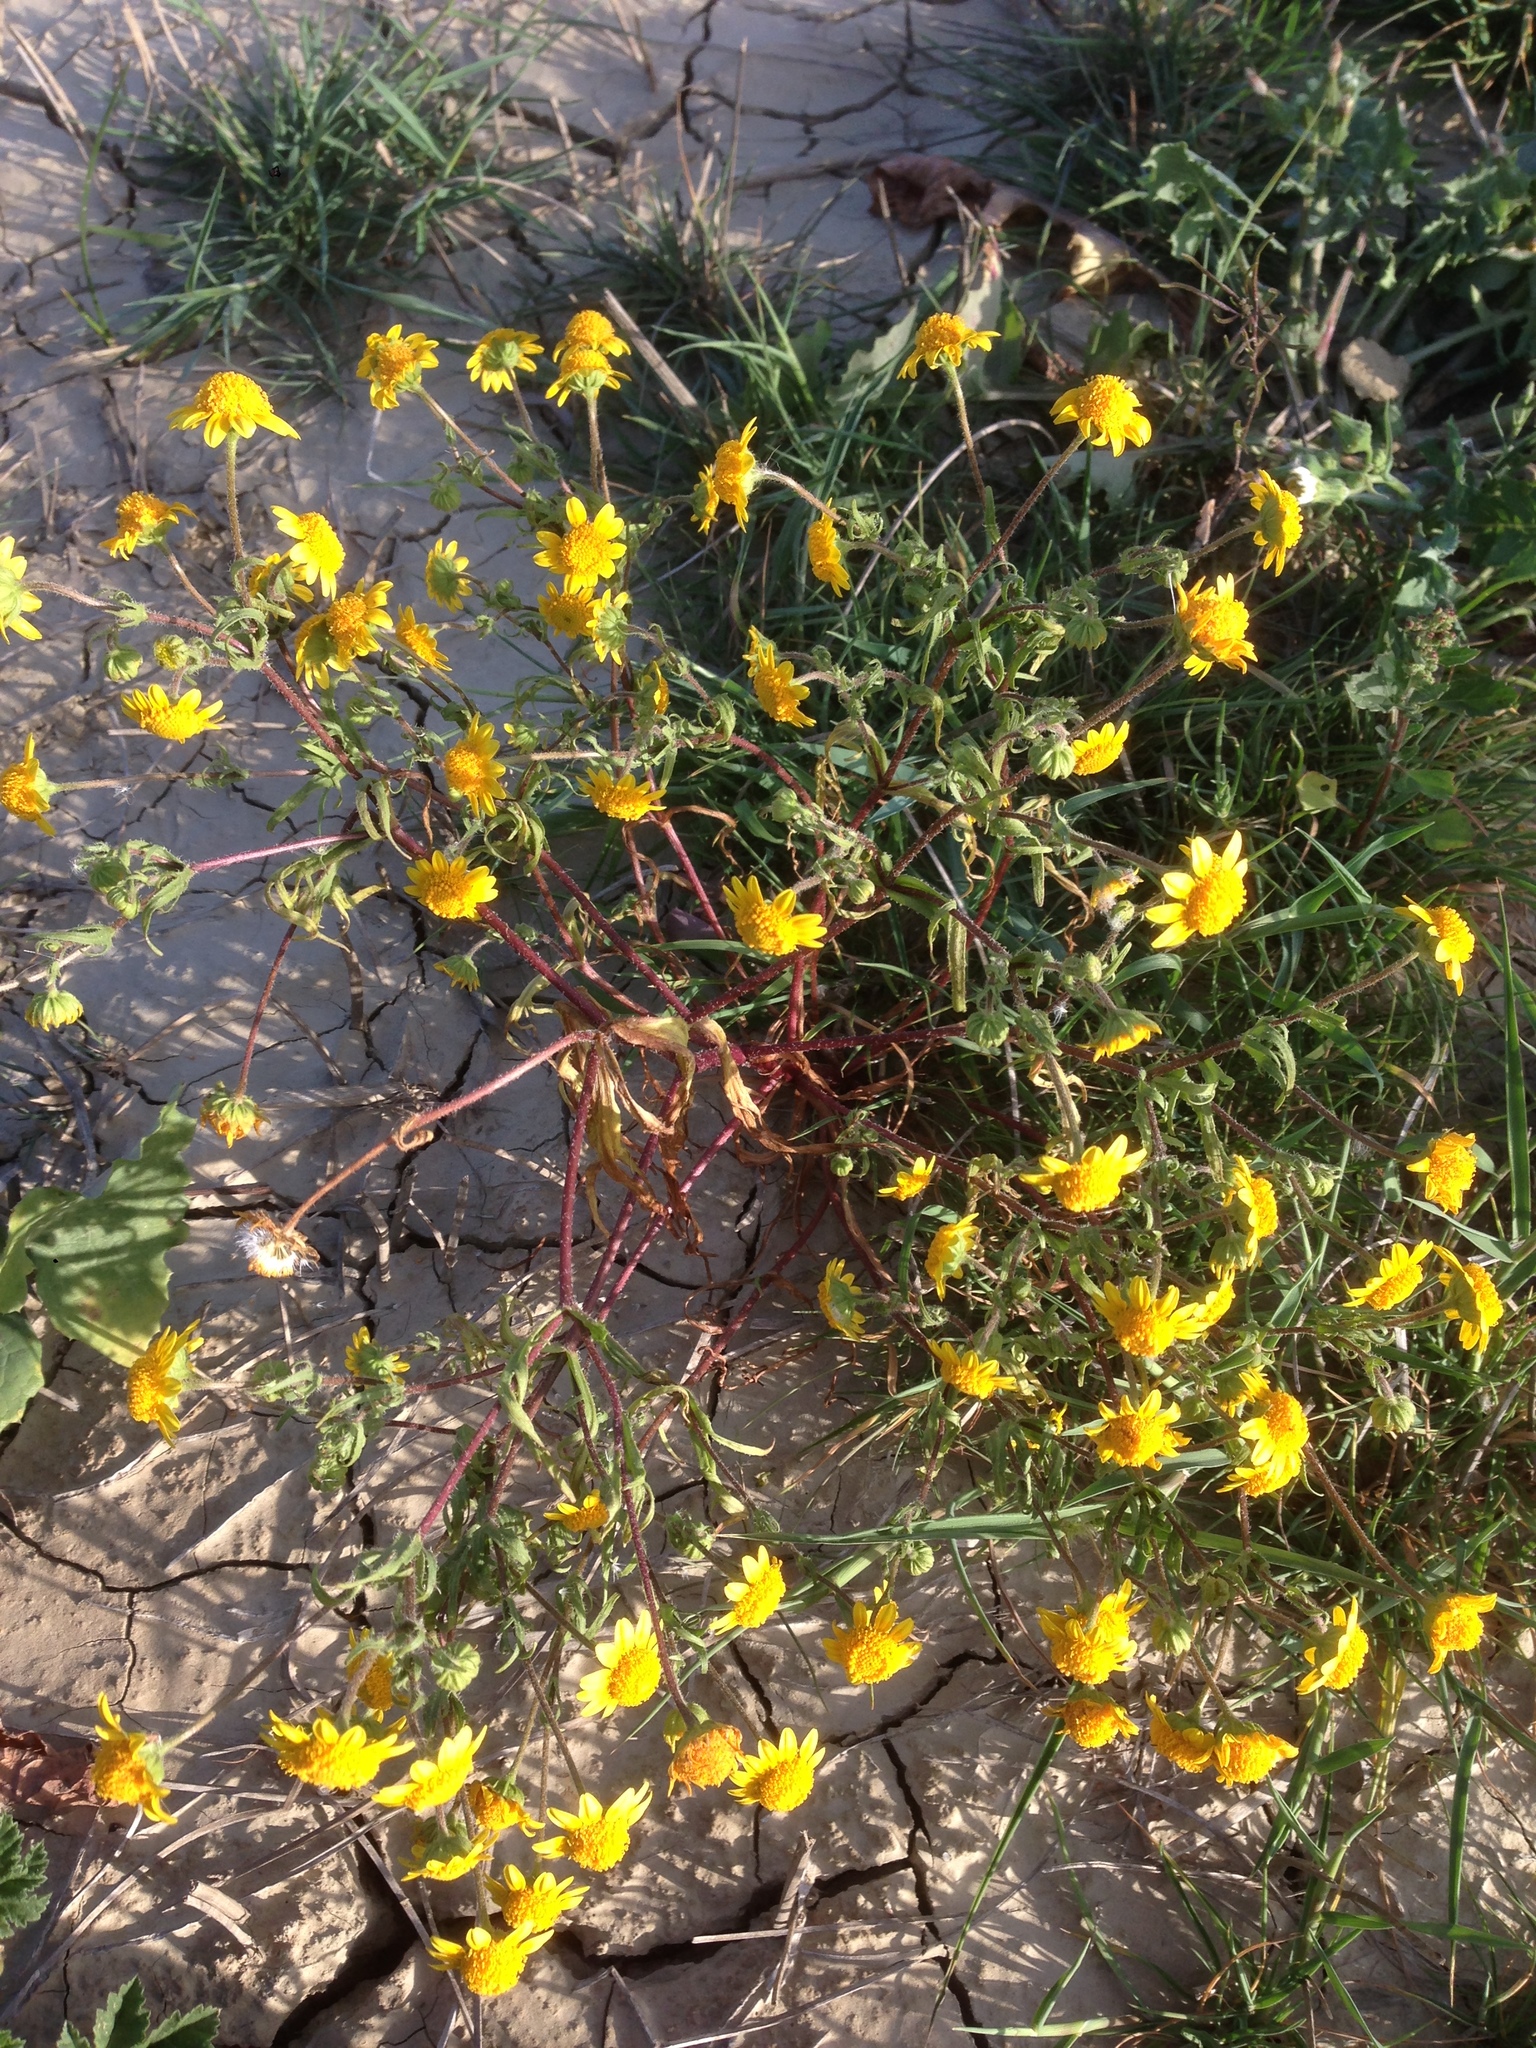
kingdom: Plantae
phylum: Tracheophyta
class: Magnoliopsida
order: Asterales
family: Asteraceae
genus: Lasthenia
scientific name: Lasthenia coronaria
